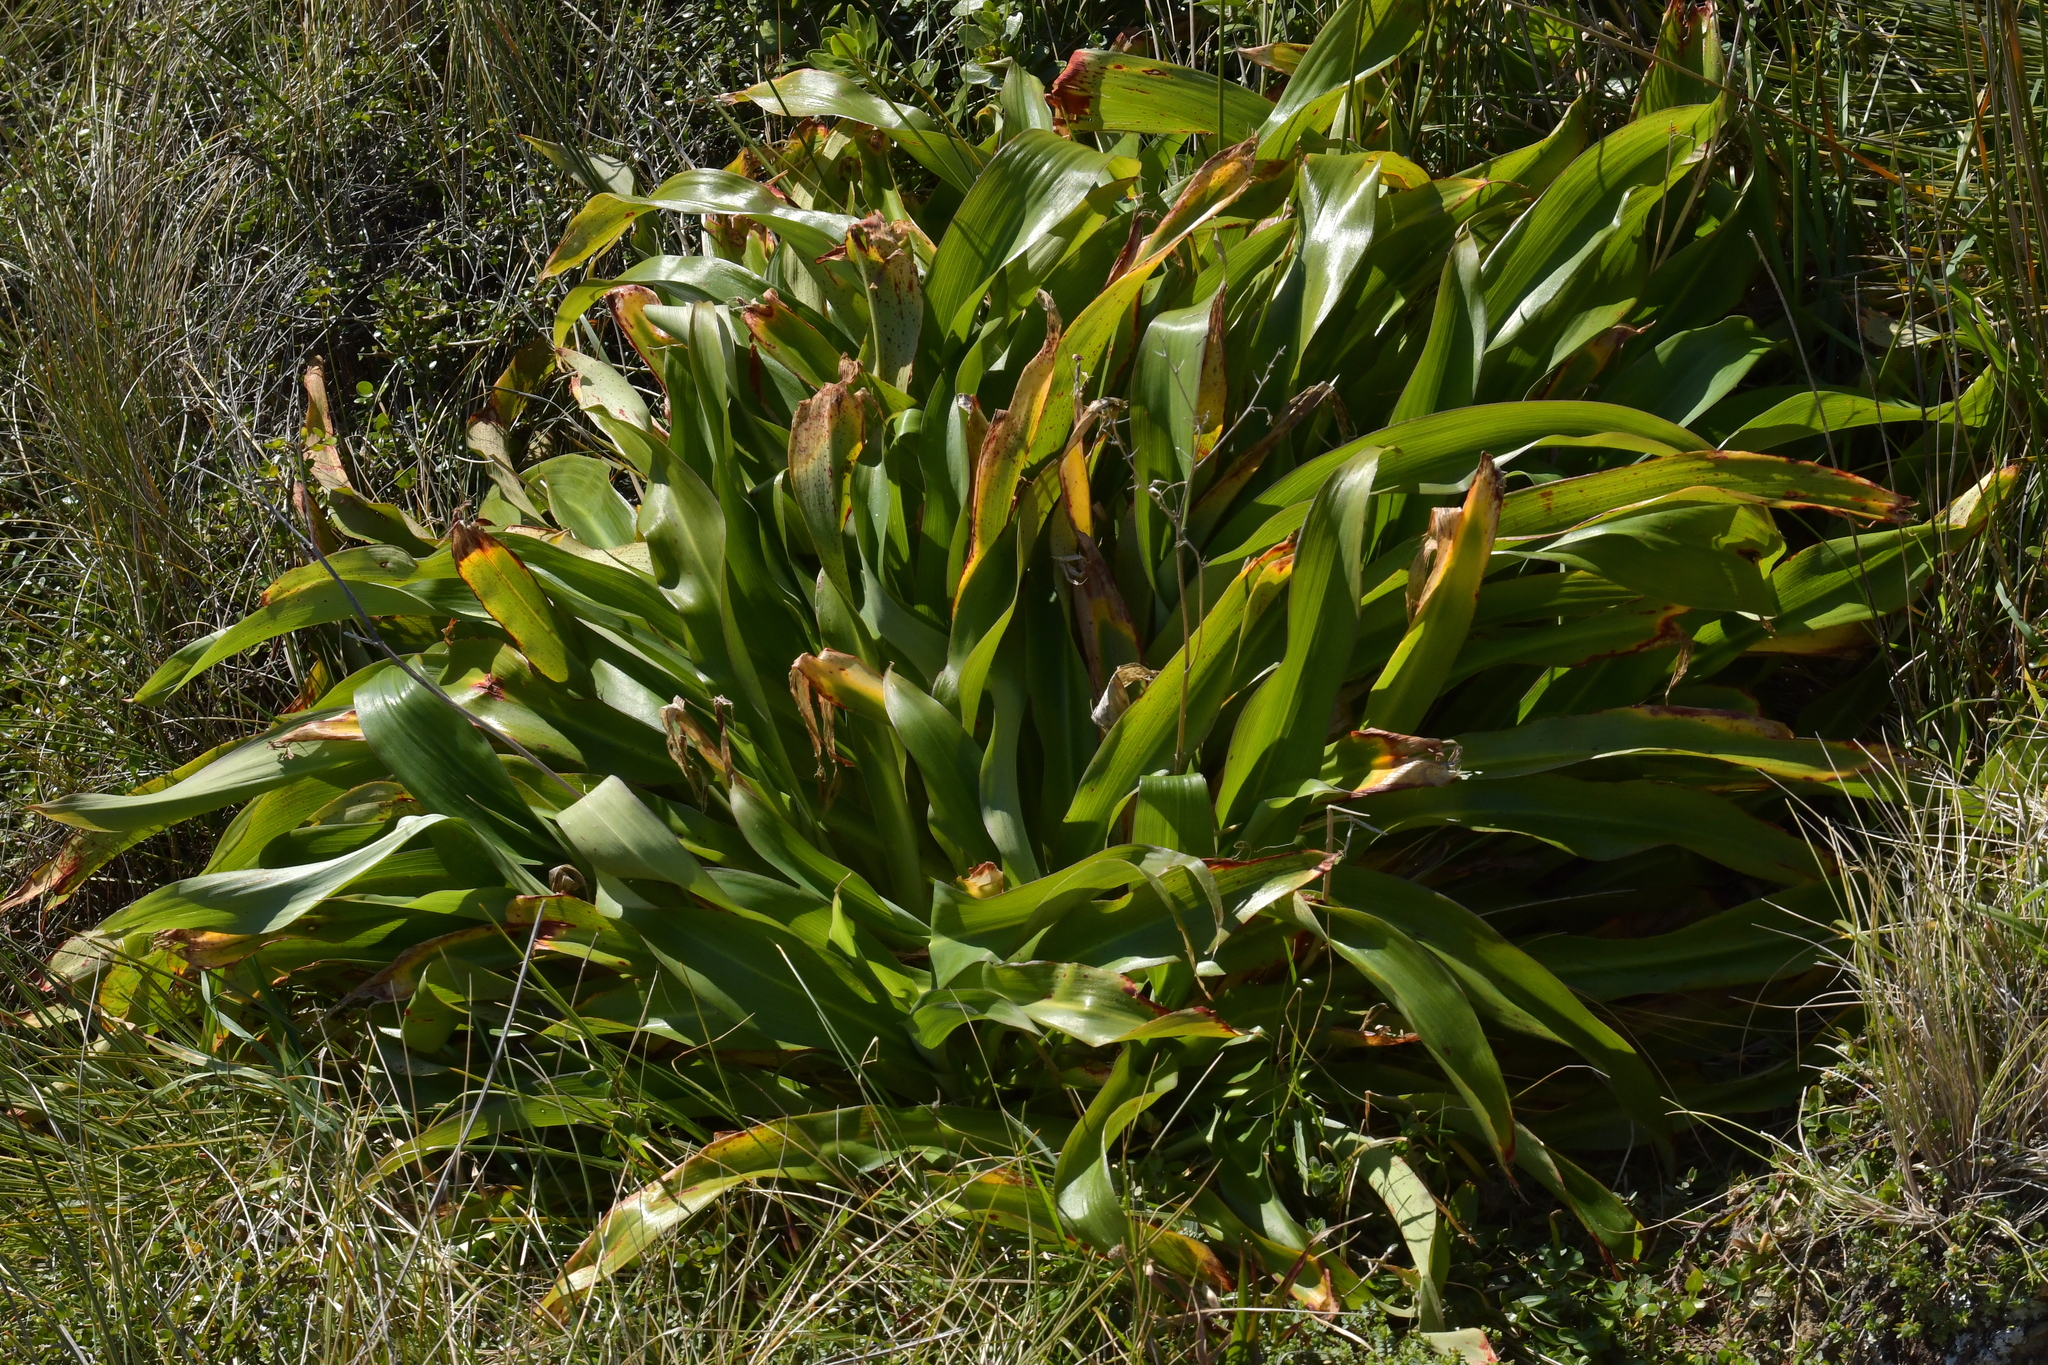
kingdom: Plantae
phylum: Tracheophyta
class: Liliopsida
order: Asparagales
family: Asparagaceae
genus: Arthropodium
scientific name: Arthropodium cirratum
